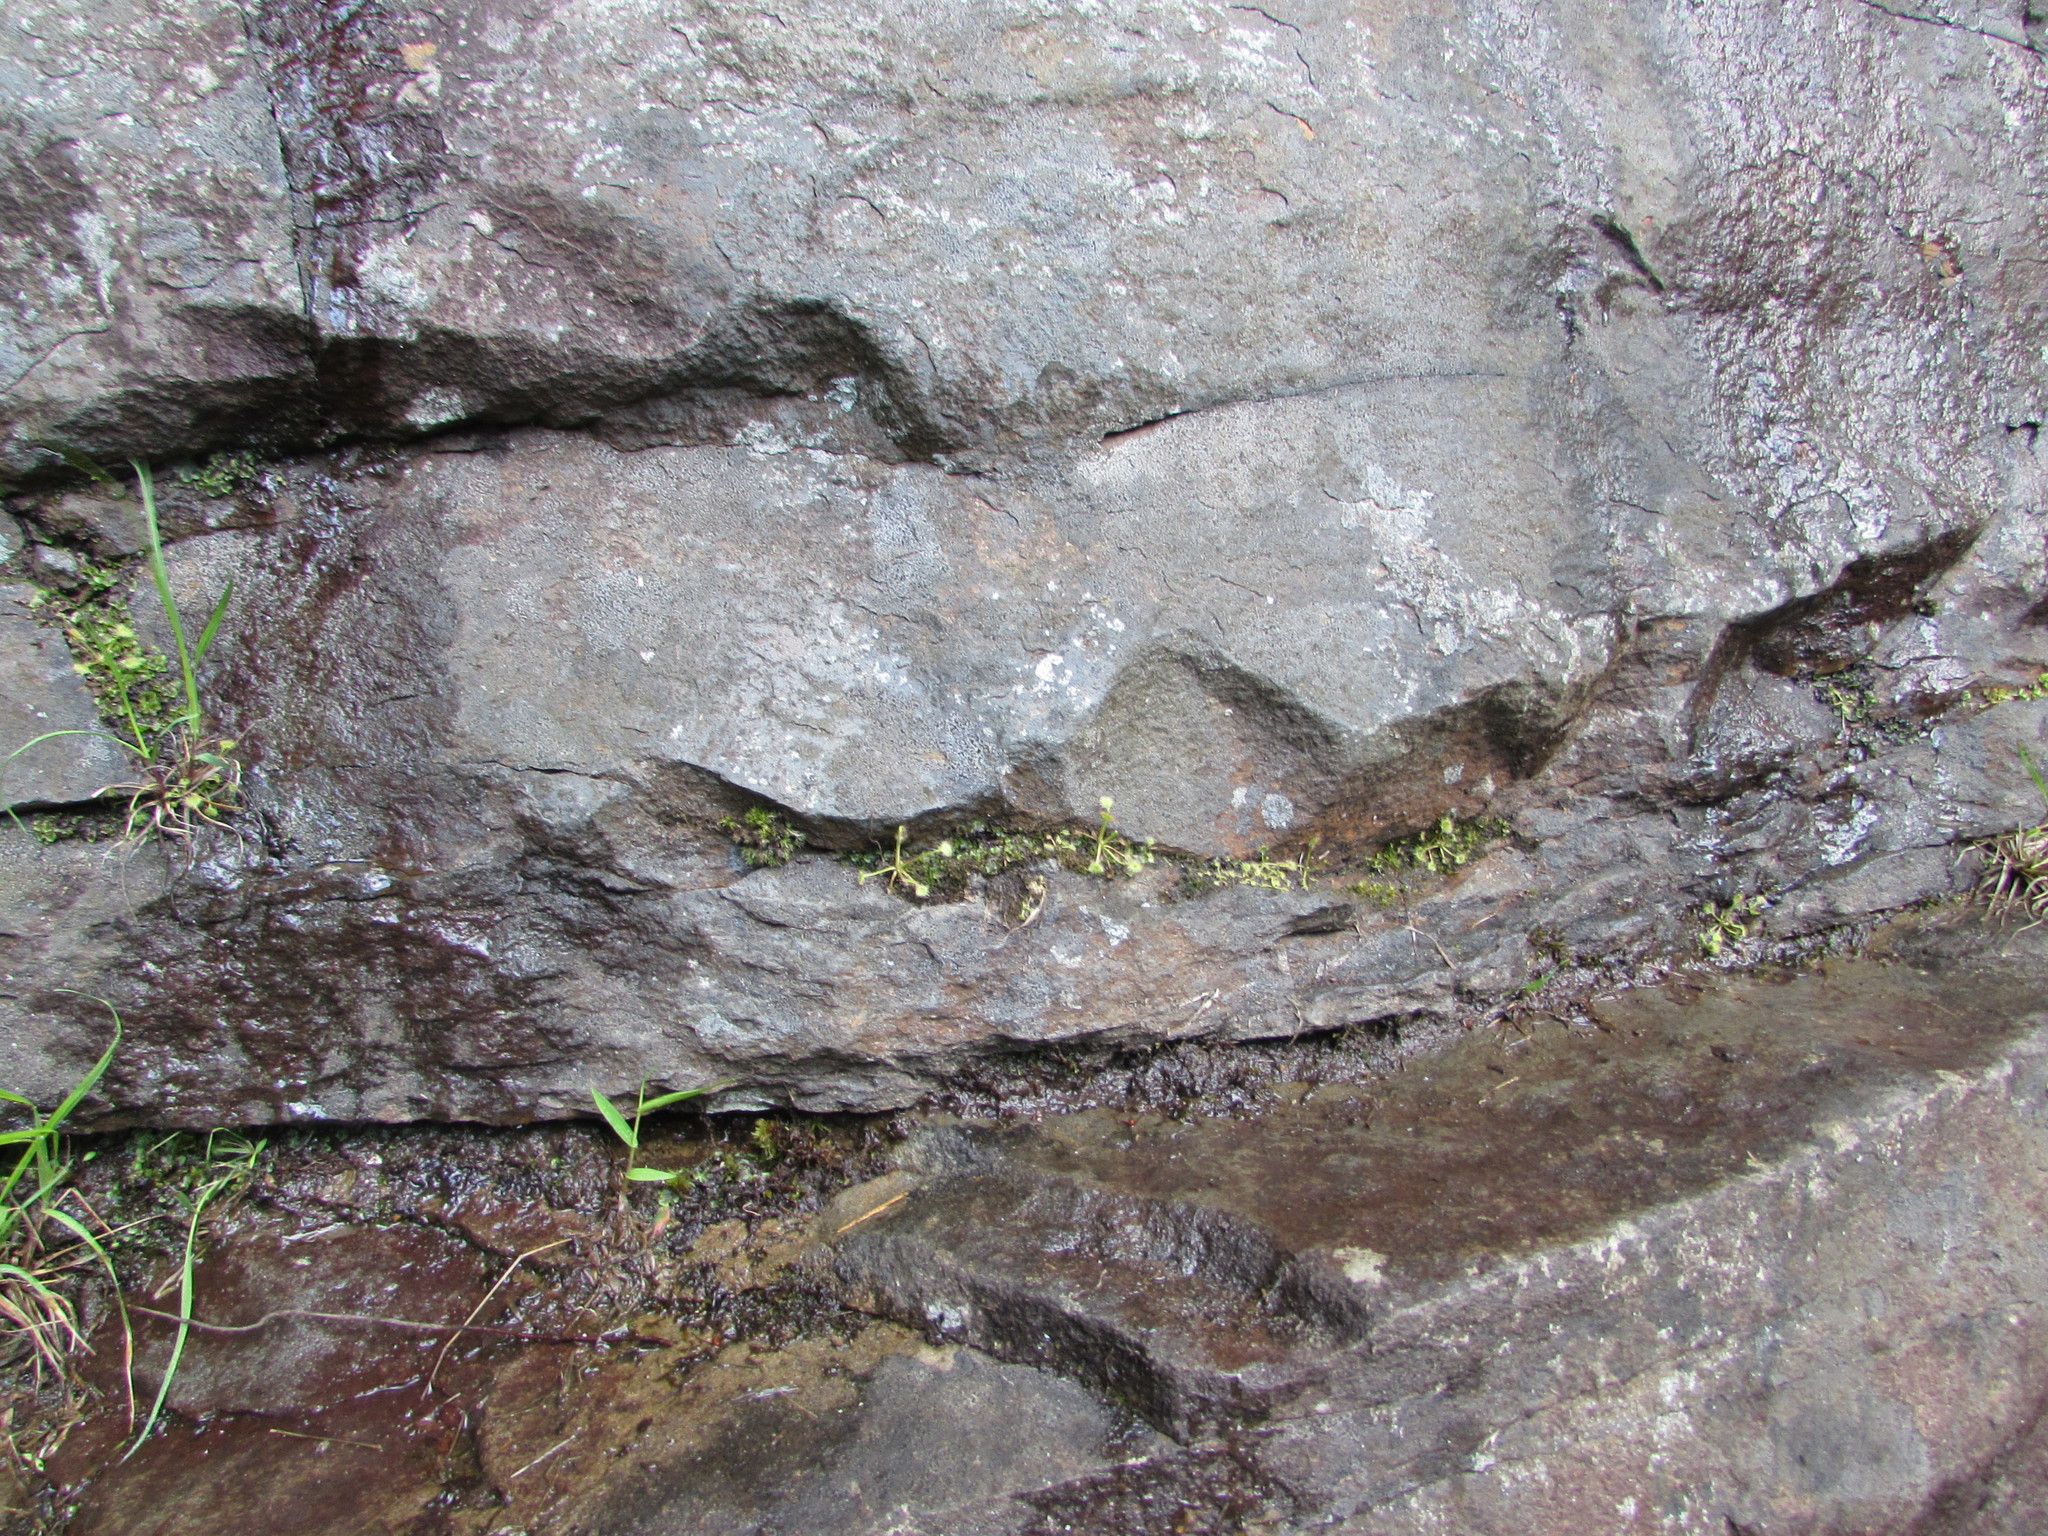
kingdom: Plantae
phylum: Tracheophyta
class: Magnoliopsida
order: Caryophyllales
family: Droseraceae
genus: Drosera
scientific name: Drosera rotundifolia
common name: Round-leaved sundew
